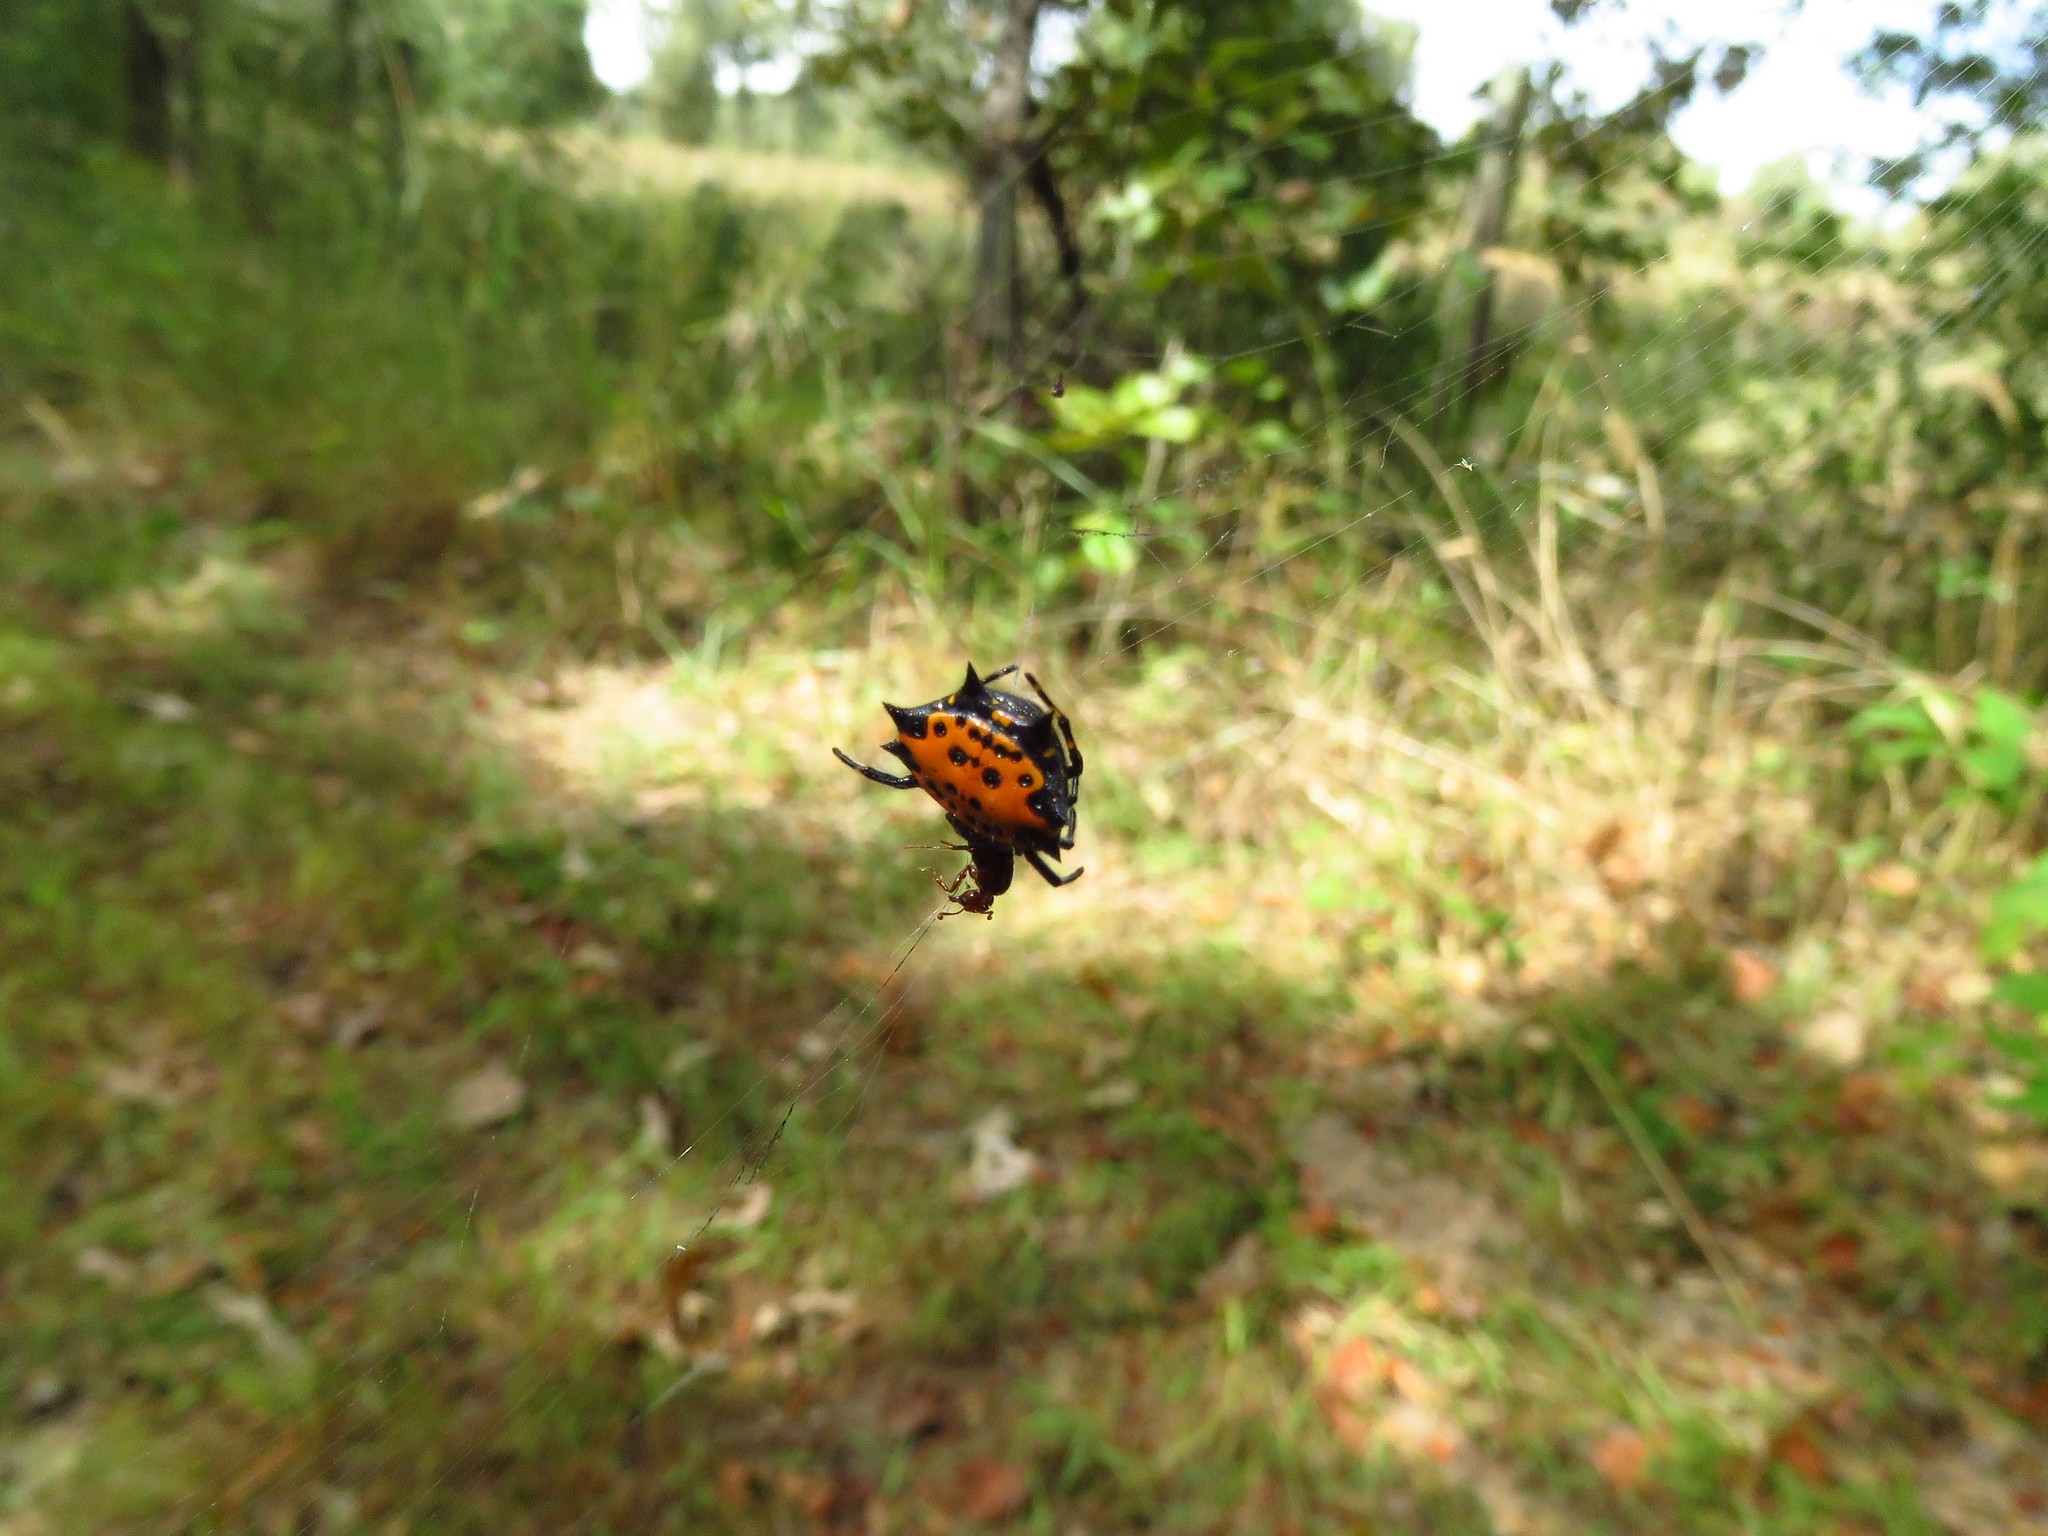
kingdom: Animalia
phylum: Arthropoda
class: Arachnida
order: Araneae
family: Araneidae
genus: Gasteracantha
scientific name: Gasteracantha cancriformis
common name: Orb weavers
